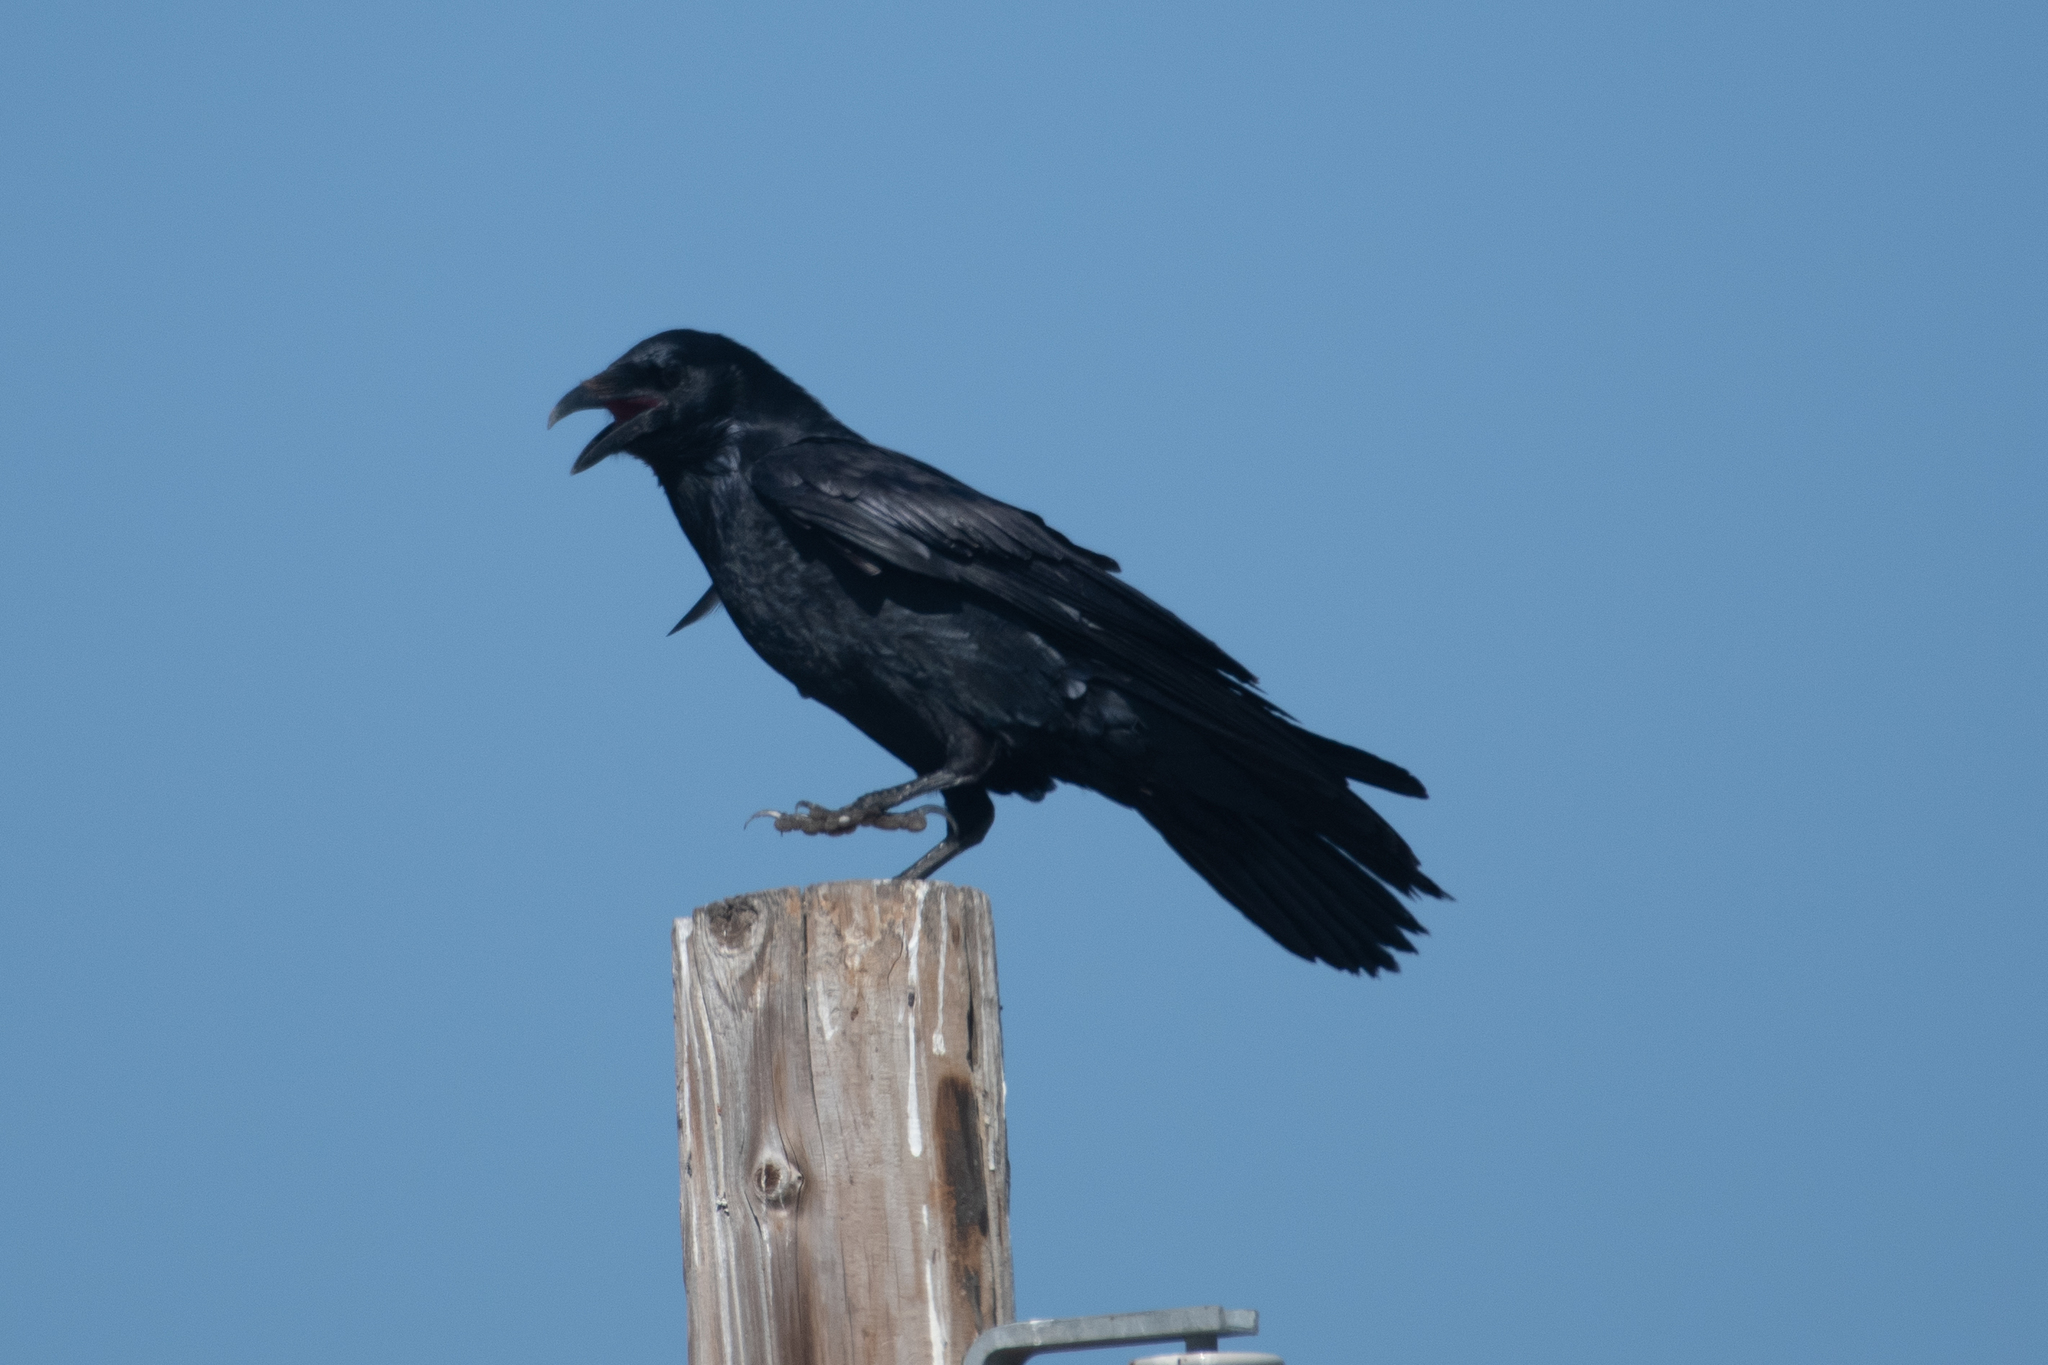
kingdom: Animalia
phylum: Chordata
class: Aves
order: Passeriformes
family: Corvidae
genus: Corvus
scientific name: Corvus corax
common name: Common raven
